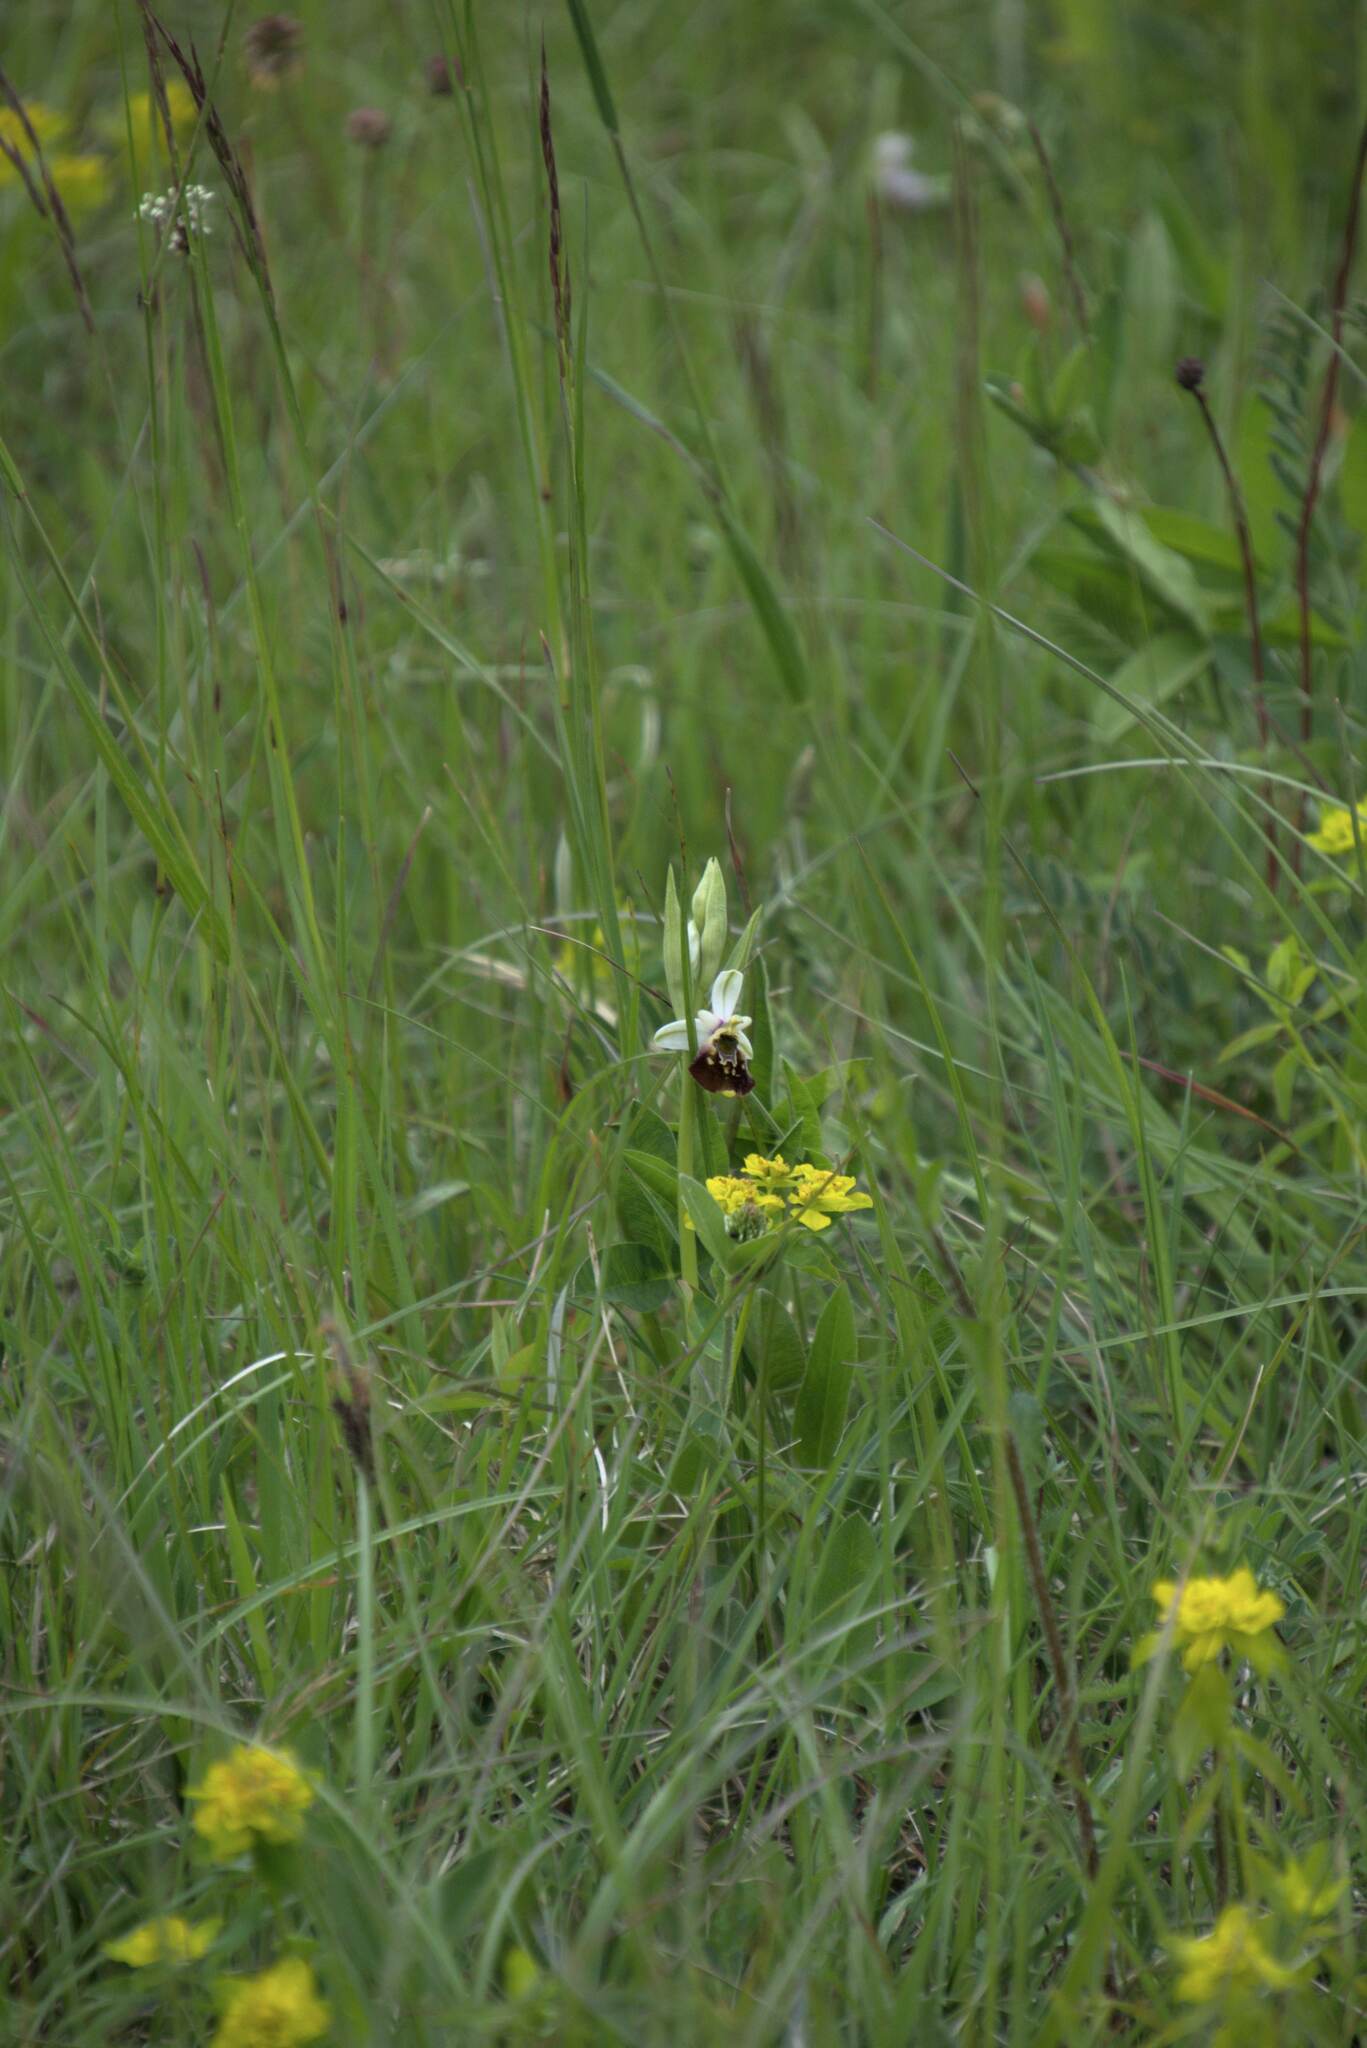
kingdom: Plantae
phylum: Tracheophyta
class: Liliopsida
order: Asparagales
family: Orchidaceae
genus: Ophrys
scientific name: Ophrys holosericea
